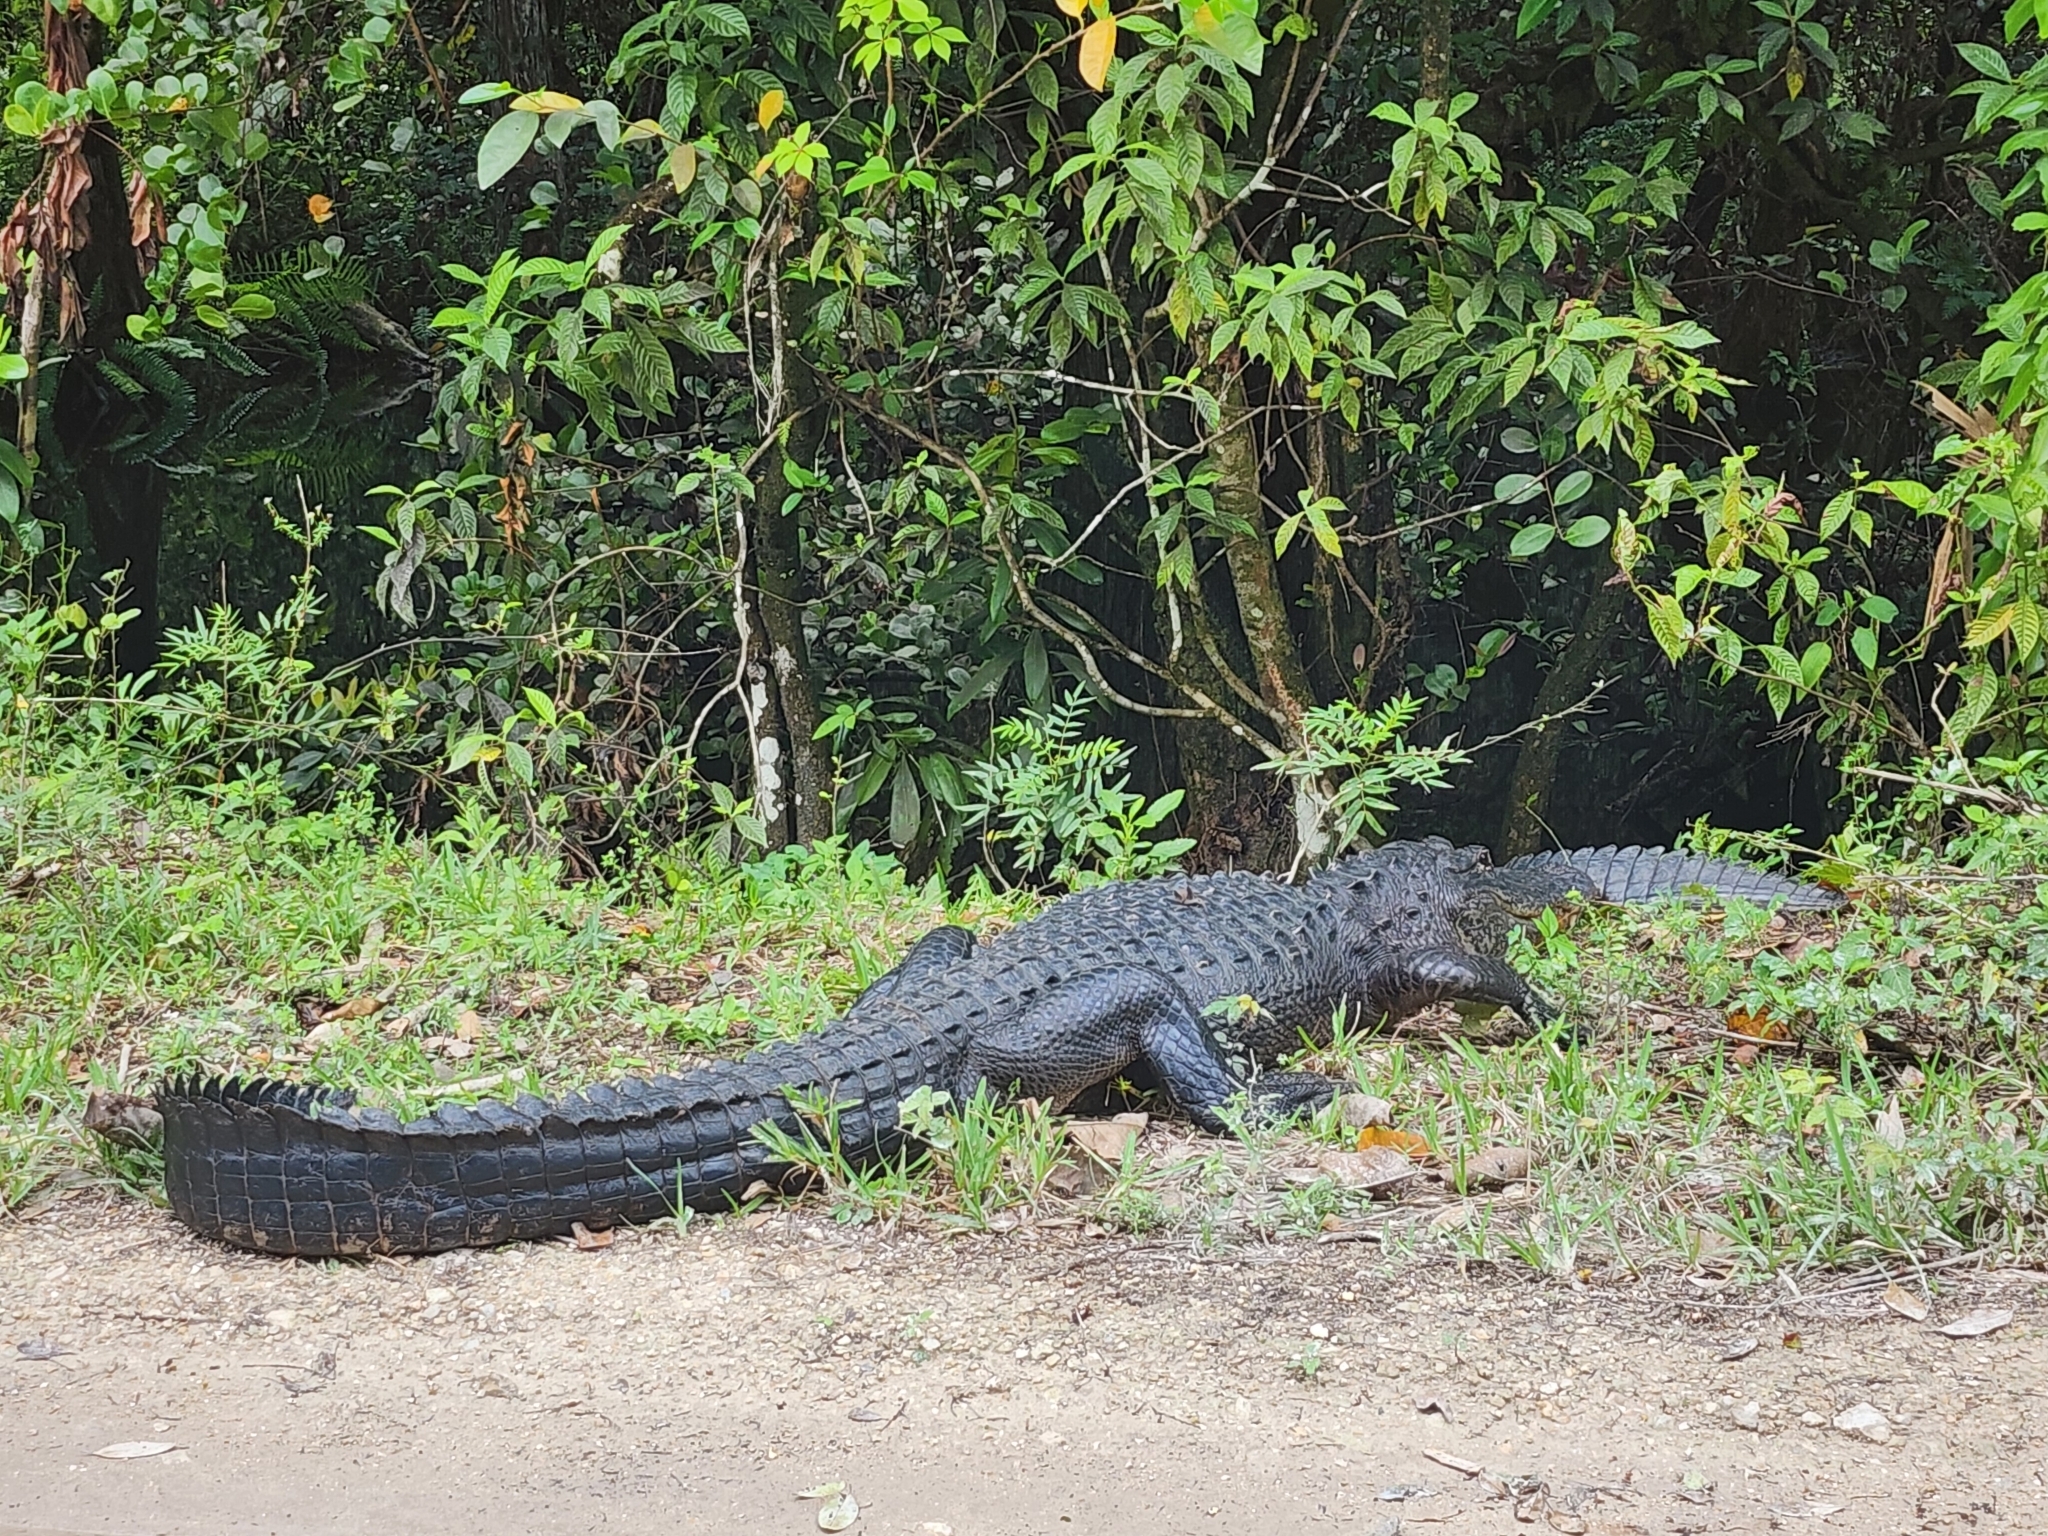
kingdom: Animalia
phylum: Chordata
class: Crocodylia
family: Alligatoridae
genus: Alligator
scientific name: Alligator mississippiensis
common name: American alligator
